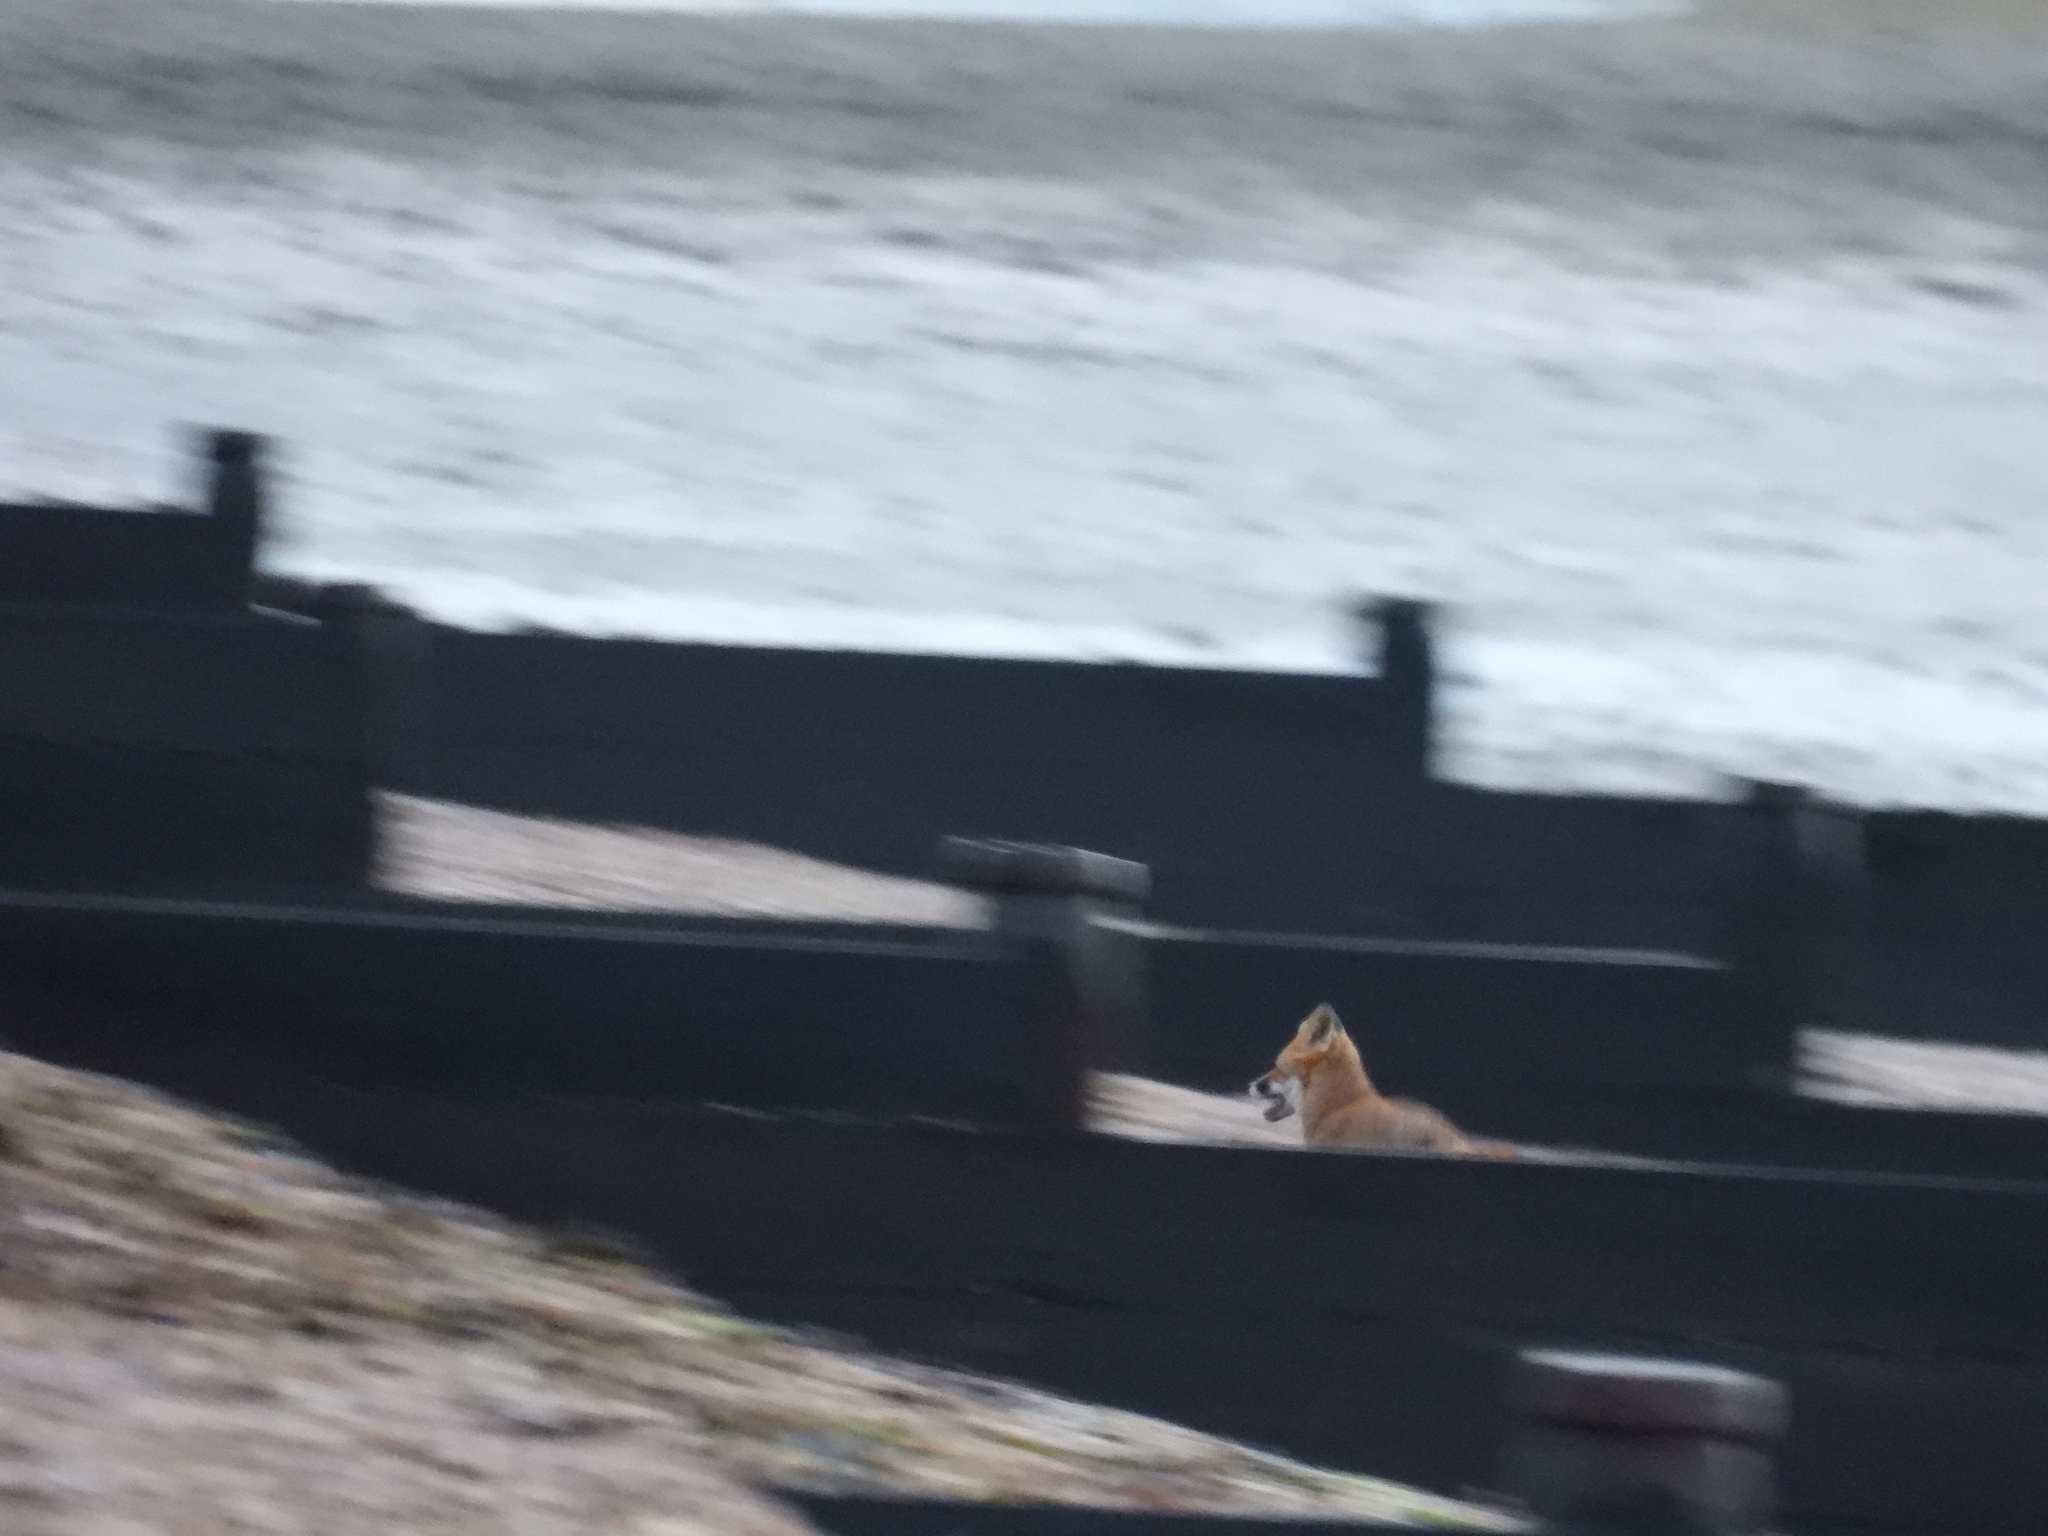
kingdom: Animalia
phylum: Chordata
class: Mammalia
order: Carnivora
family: Canidae
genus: Vulpes
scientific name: Vulpes vulpes
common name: Red fox
